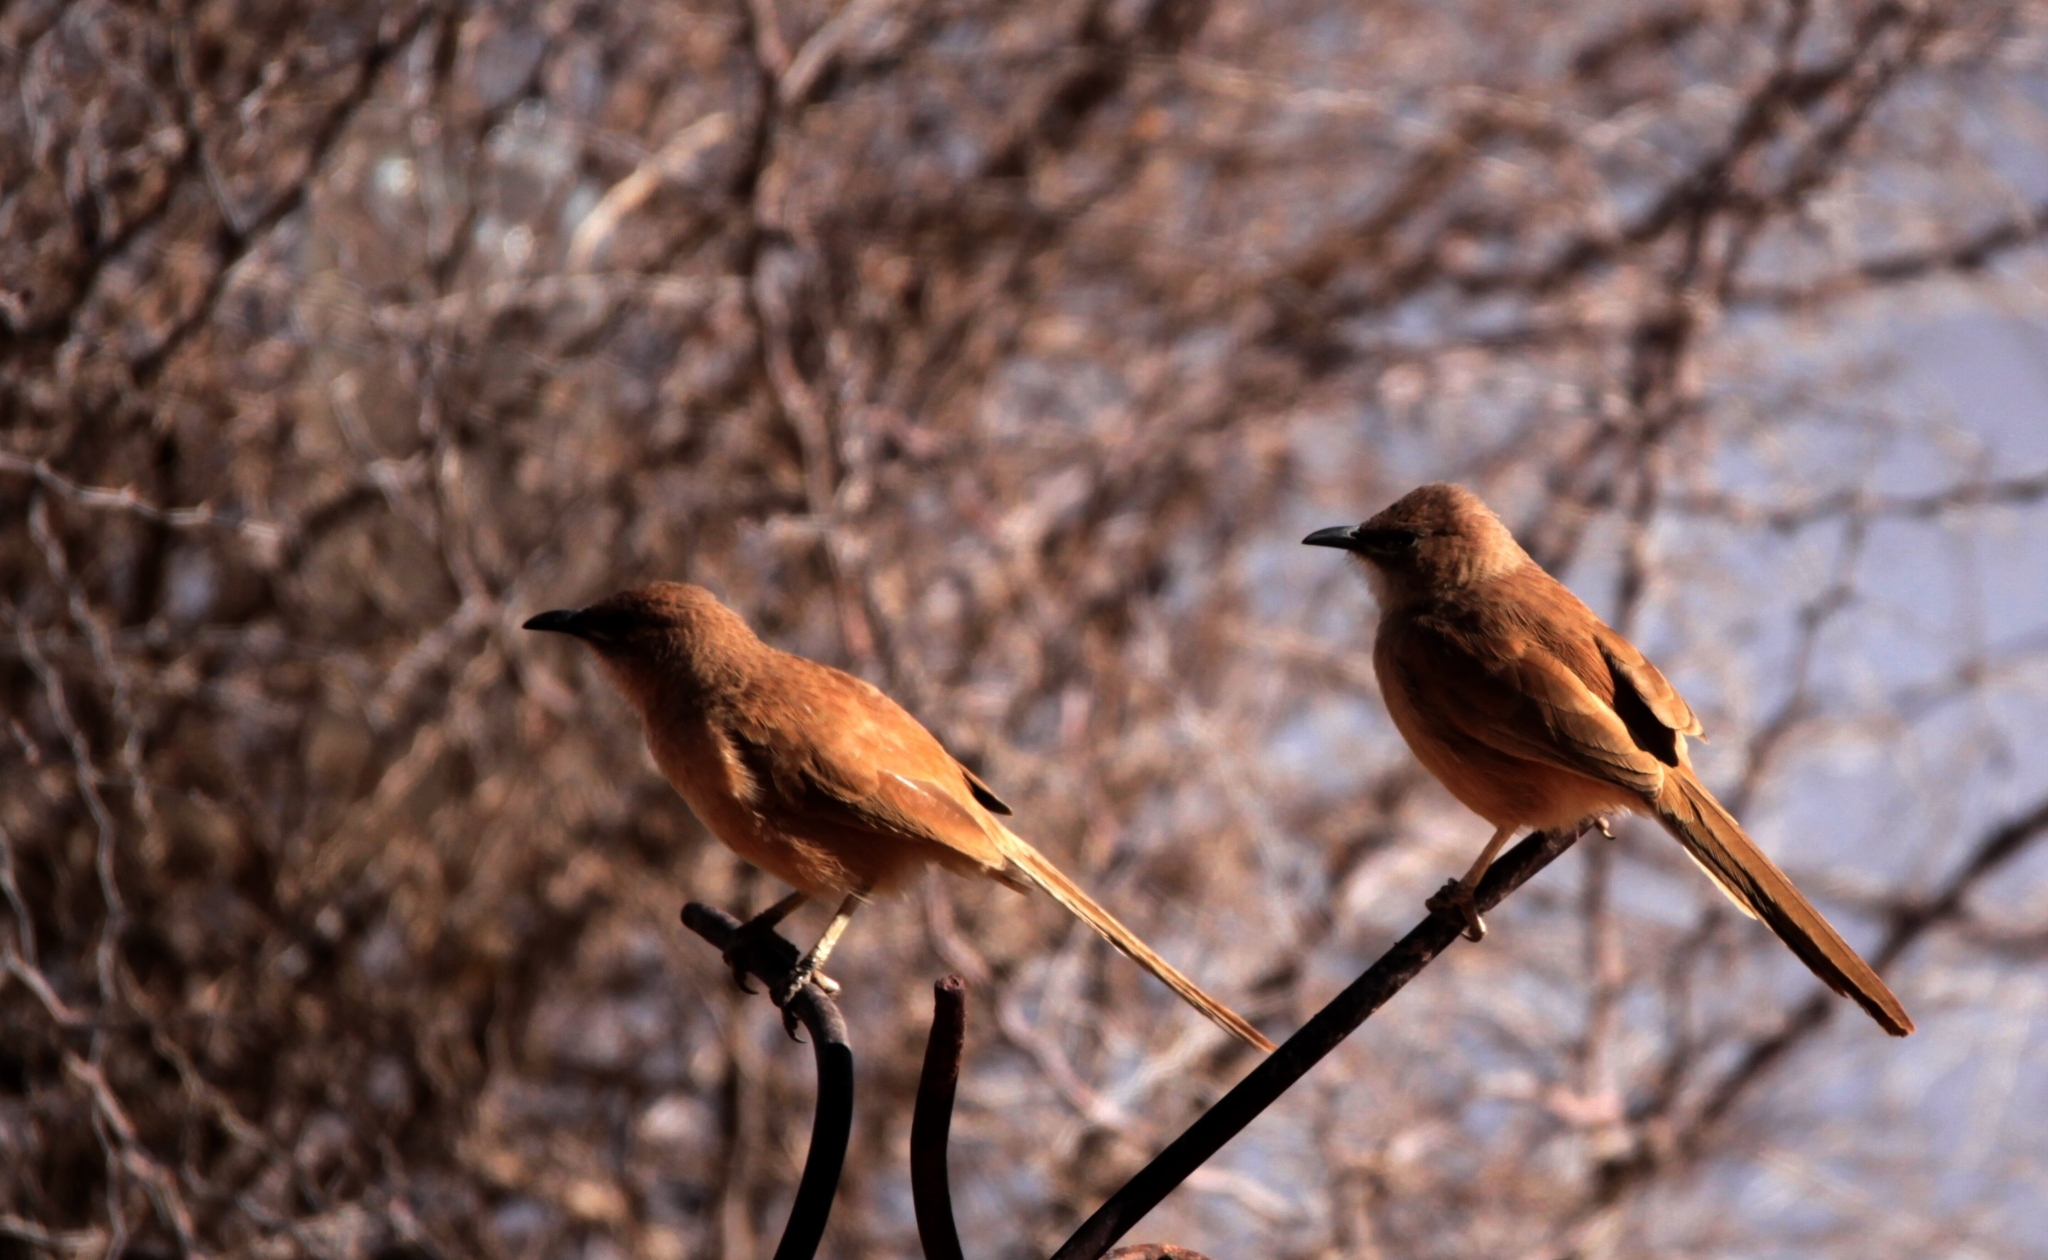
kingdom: Animalia
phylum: Chordata
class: Aves
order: Passeriformes
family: Leiothrichidae
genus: Turdoides
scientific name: Turdoides fulva
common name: Fulvous babbler
